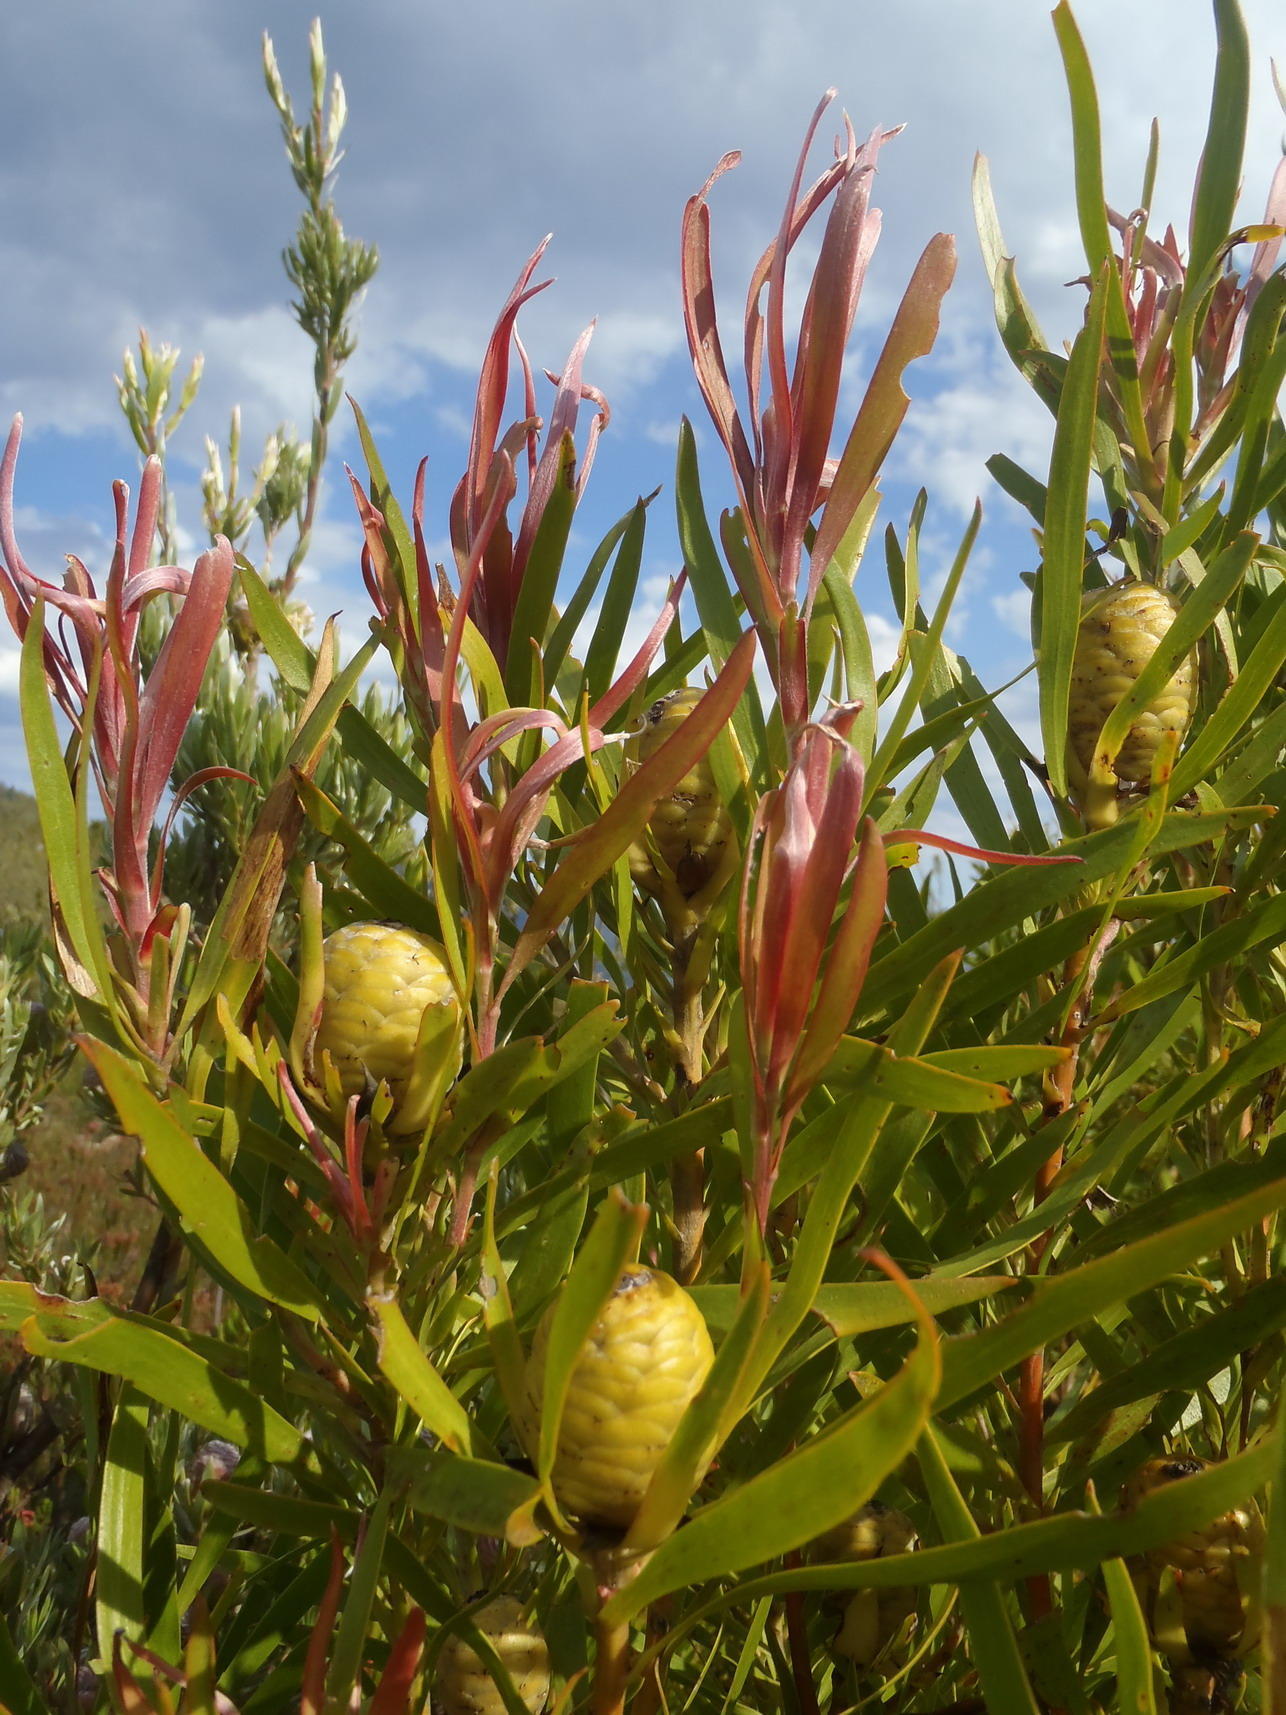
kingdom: Plantae
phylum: Tracheophyta
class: Magnoliopsida
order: Proteales
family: Proteaceae
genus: Leucadendron
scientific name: Leucadendron eucalyptifolium
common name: Gum-leaved conebush
